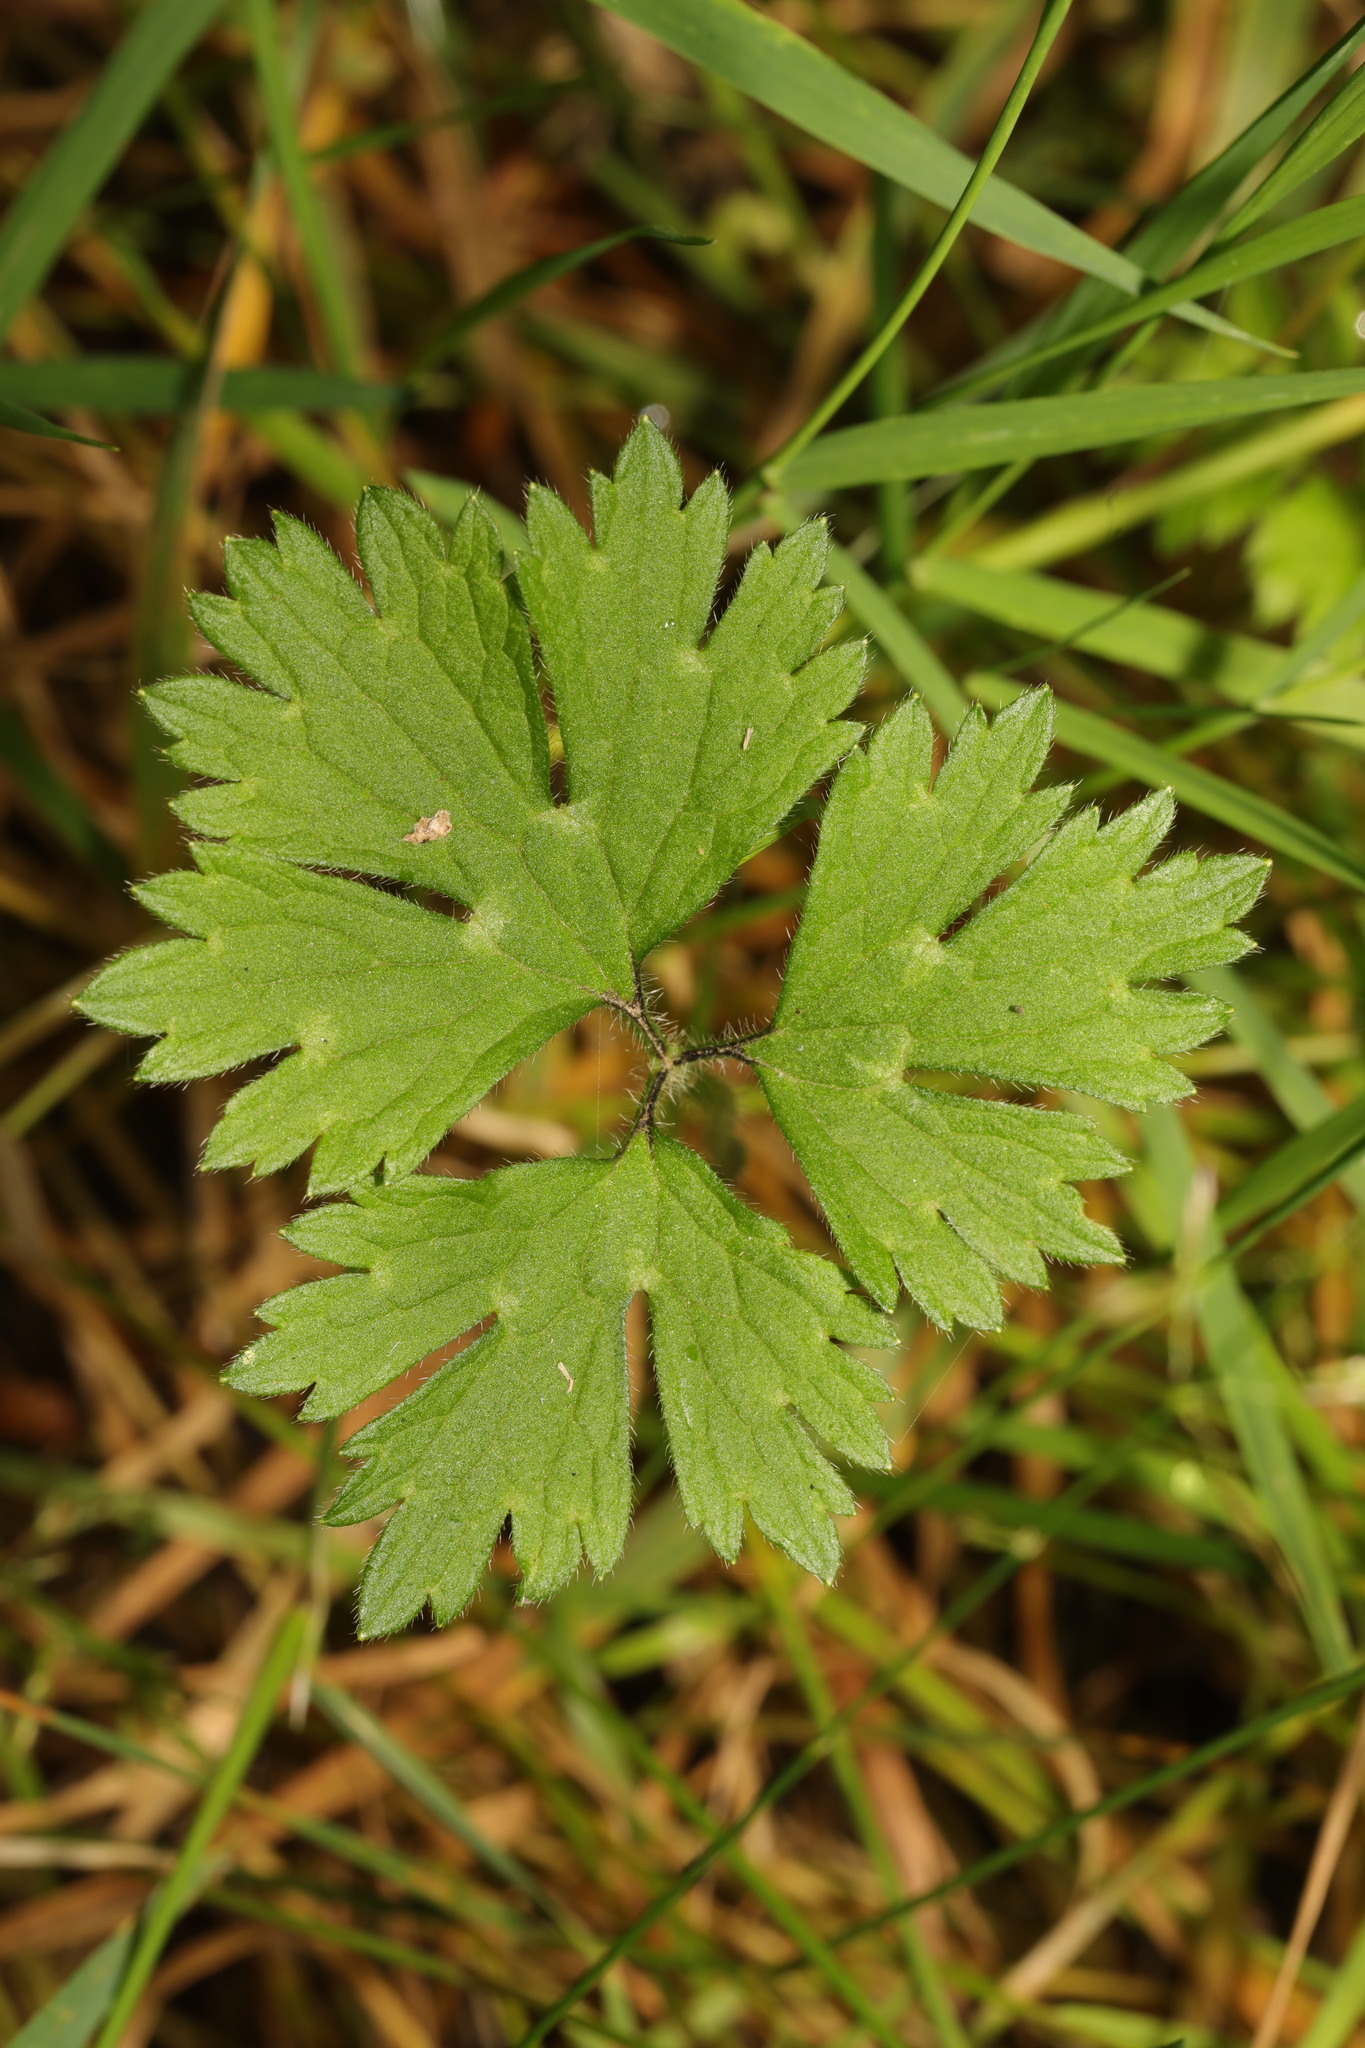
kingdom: Plantae
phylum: Tracheophyta
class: Magnoliopsida
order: Ranunculales
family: Ranunculaceae
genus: Ranunculus
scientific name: Ranunculus repens
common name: Creeping buttercup
